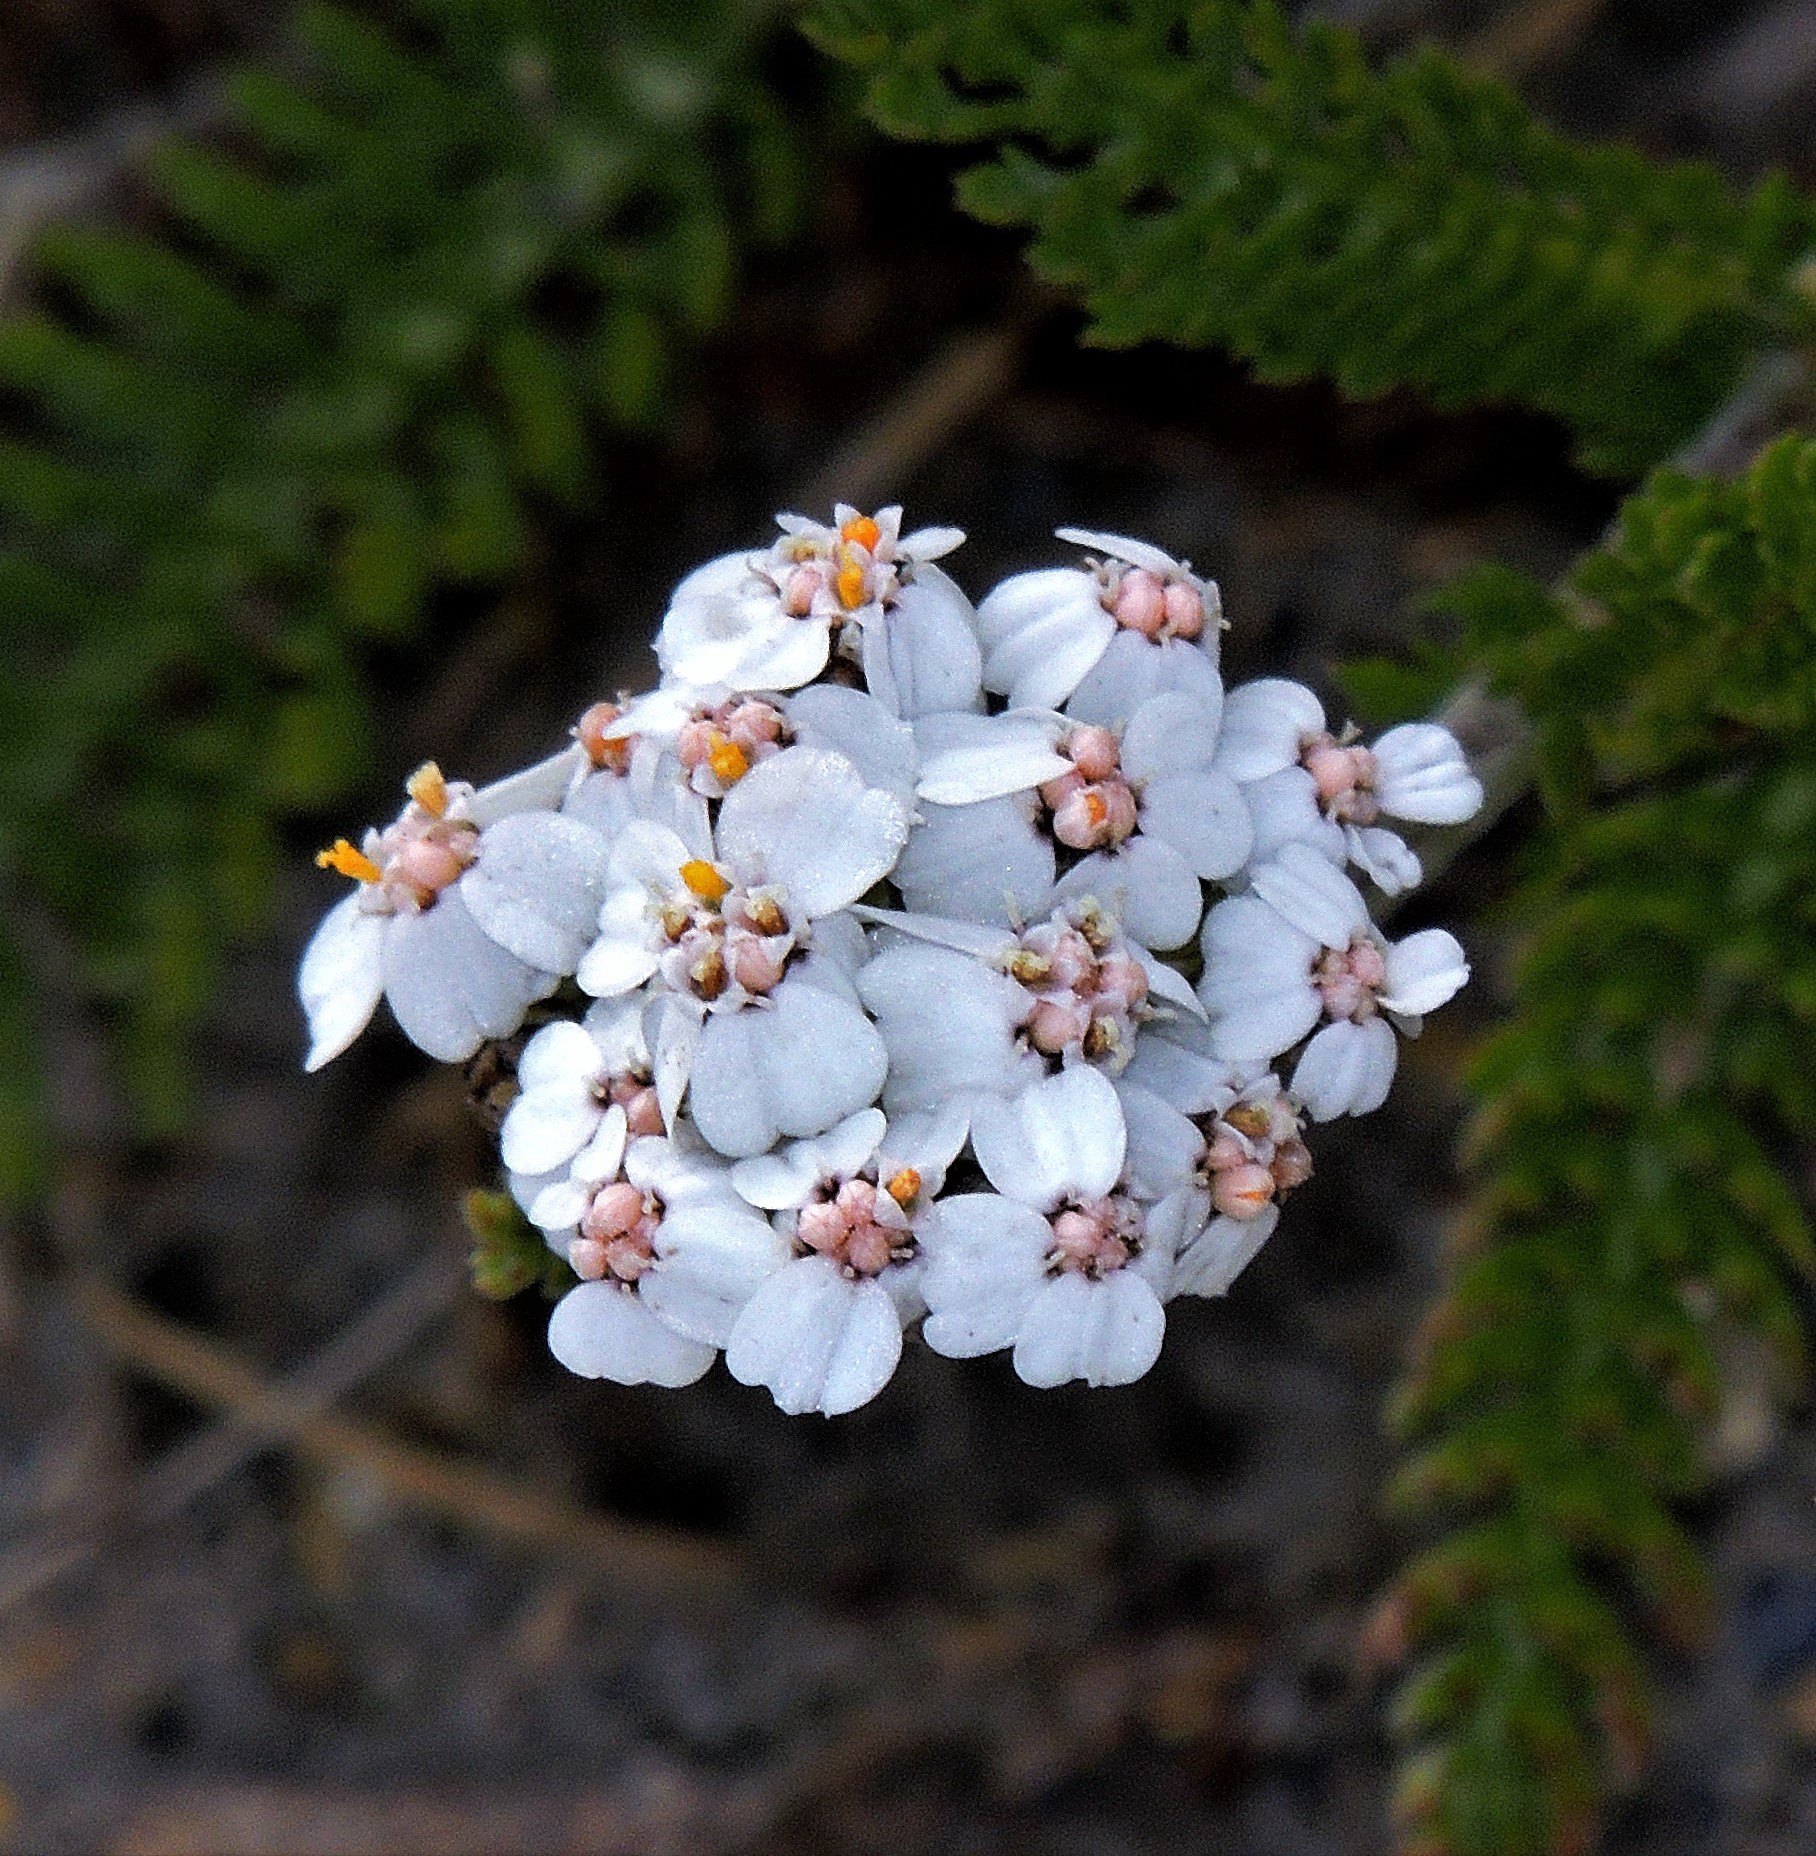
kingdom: Plantae
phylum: Tracheophyta
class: Magnoliopsida
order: Asterales
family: Asteraceae
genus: Achillea
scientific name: Achillea millefolium
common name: Yarrow
